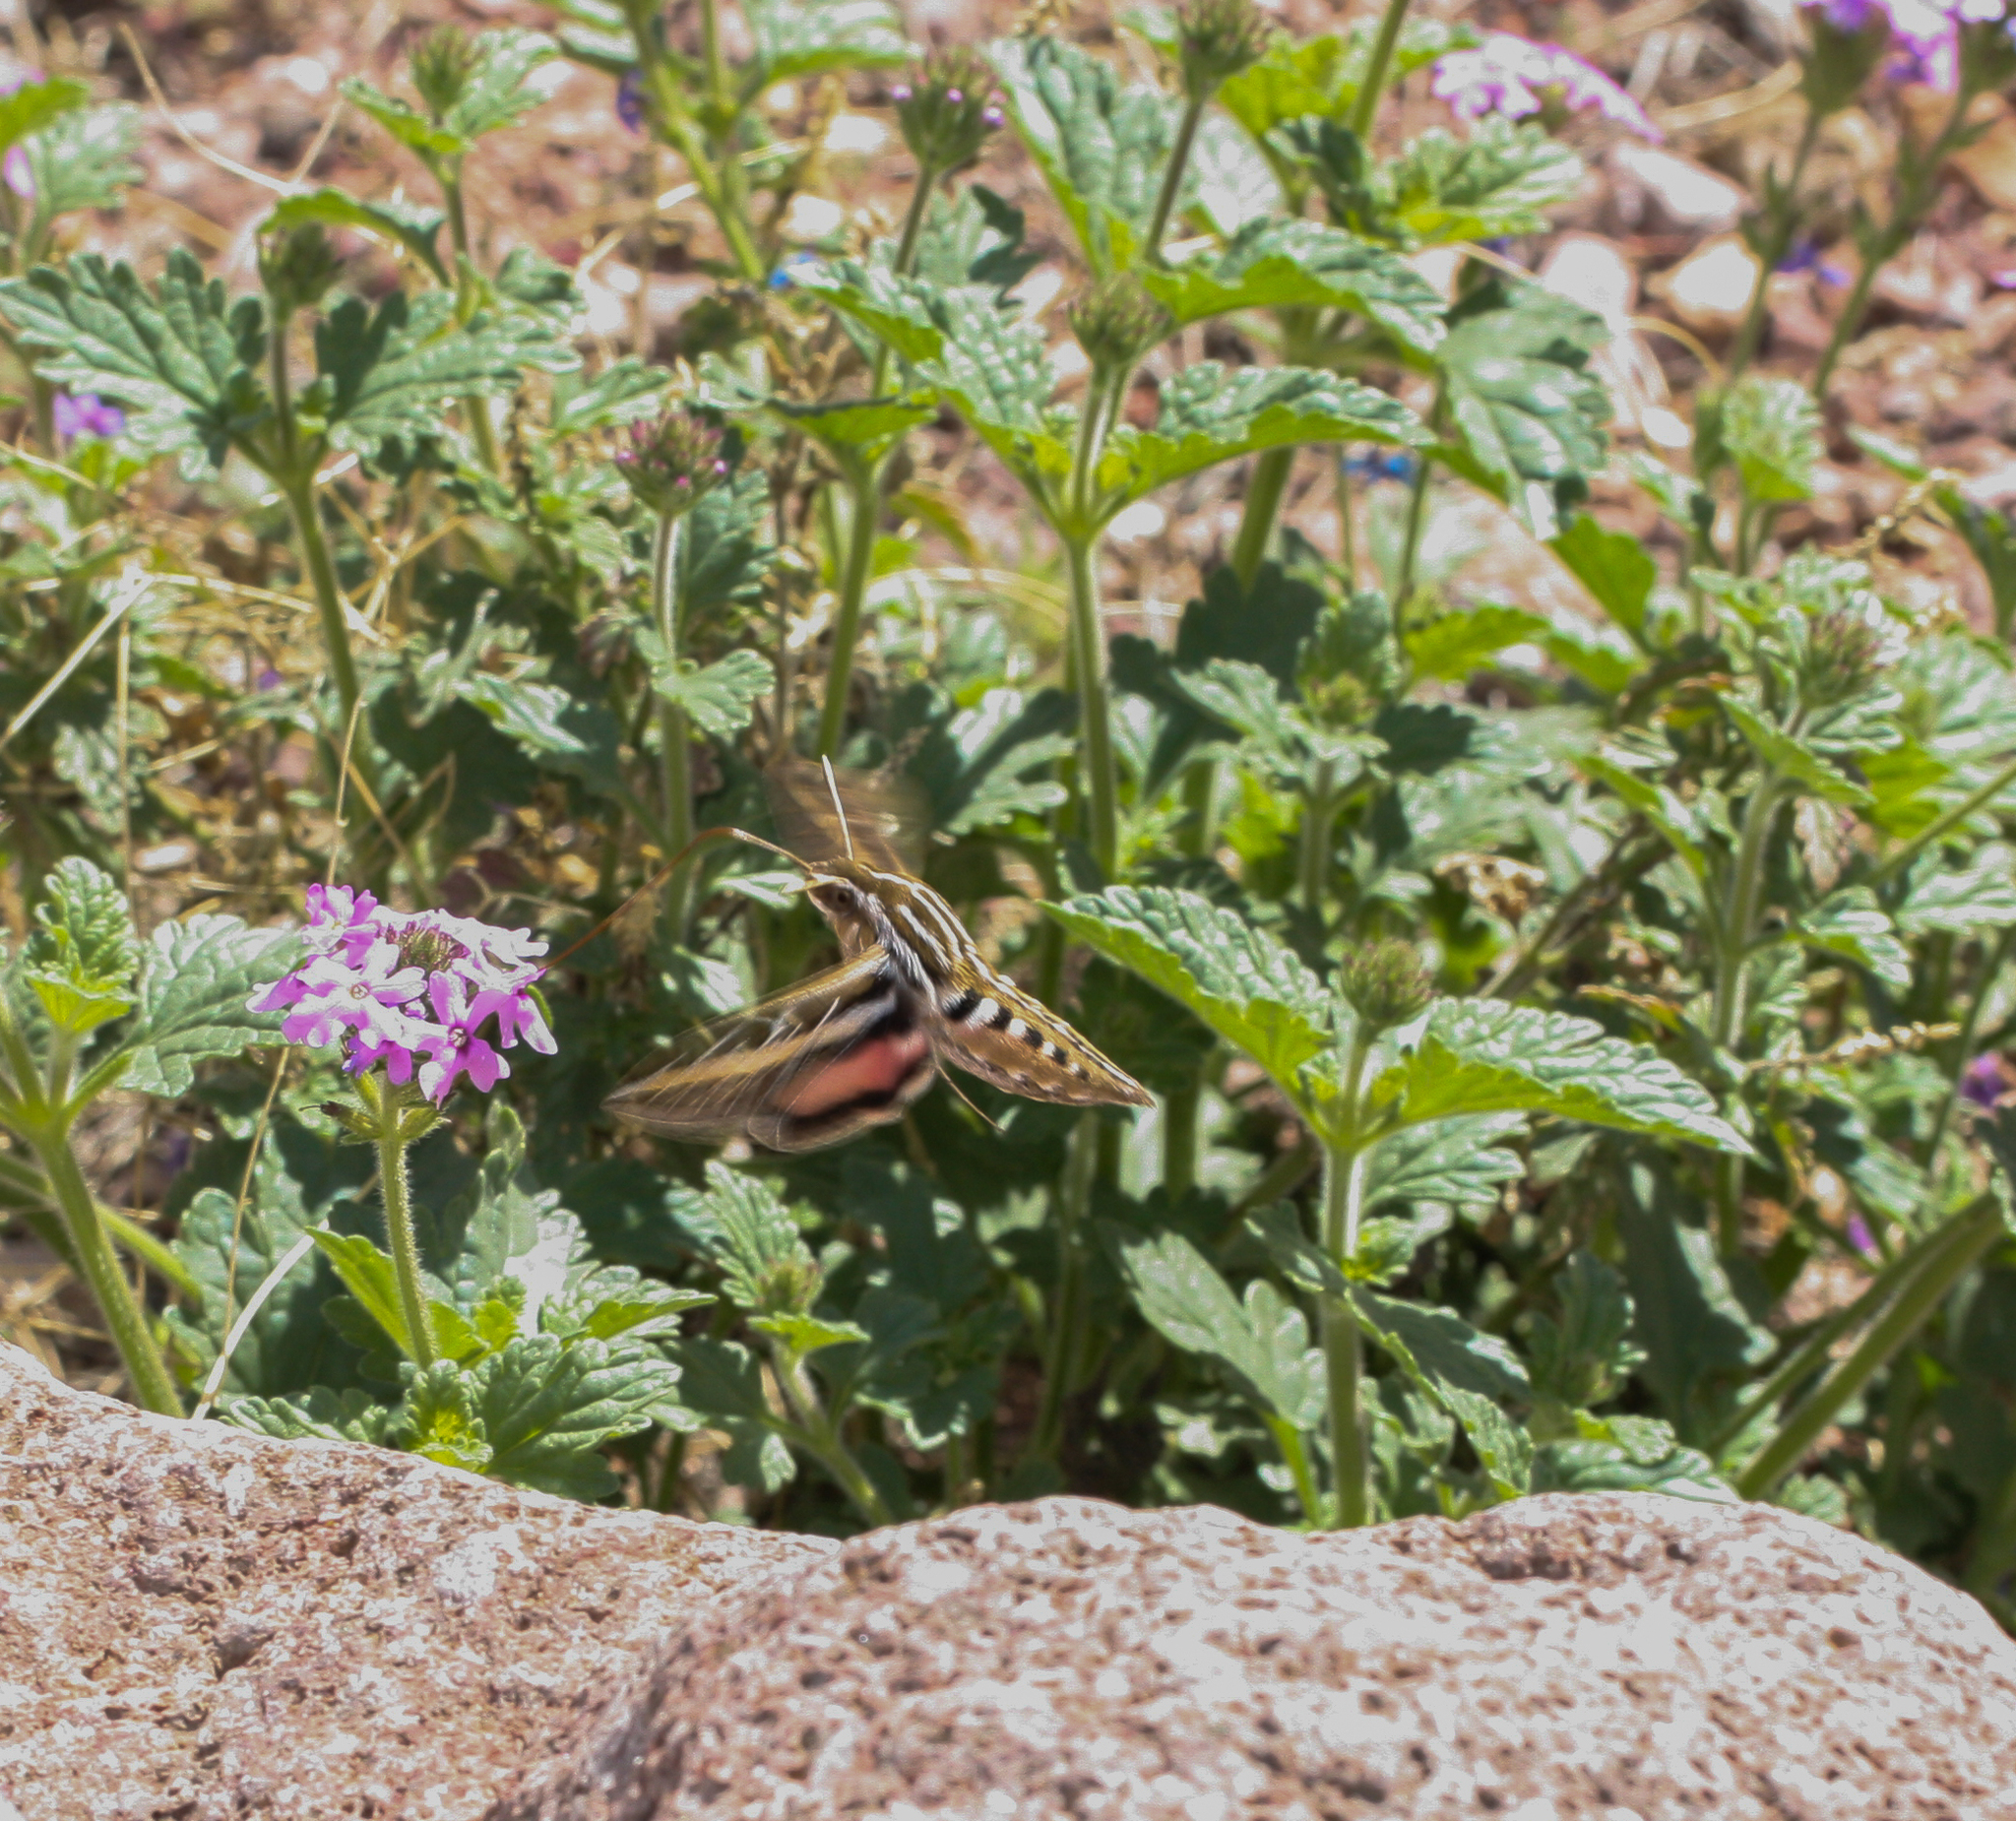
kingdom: Animalia
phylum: Arthropoda
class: Insecta
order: Lepidoptera
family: Sphingidae
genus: Hyles
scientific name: Hyles lineata
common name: White-lined sphinx
